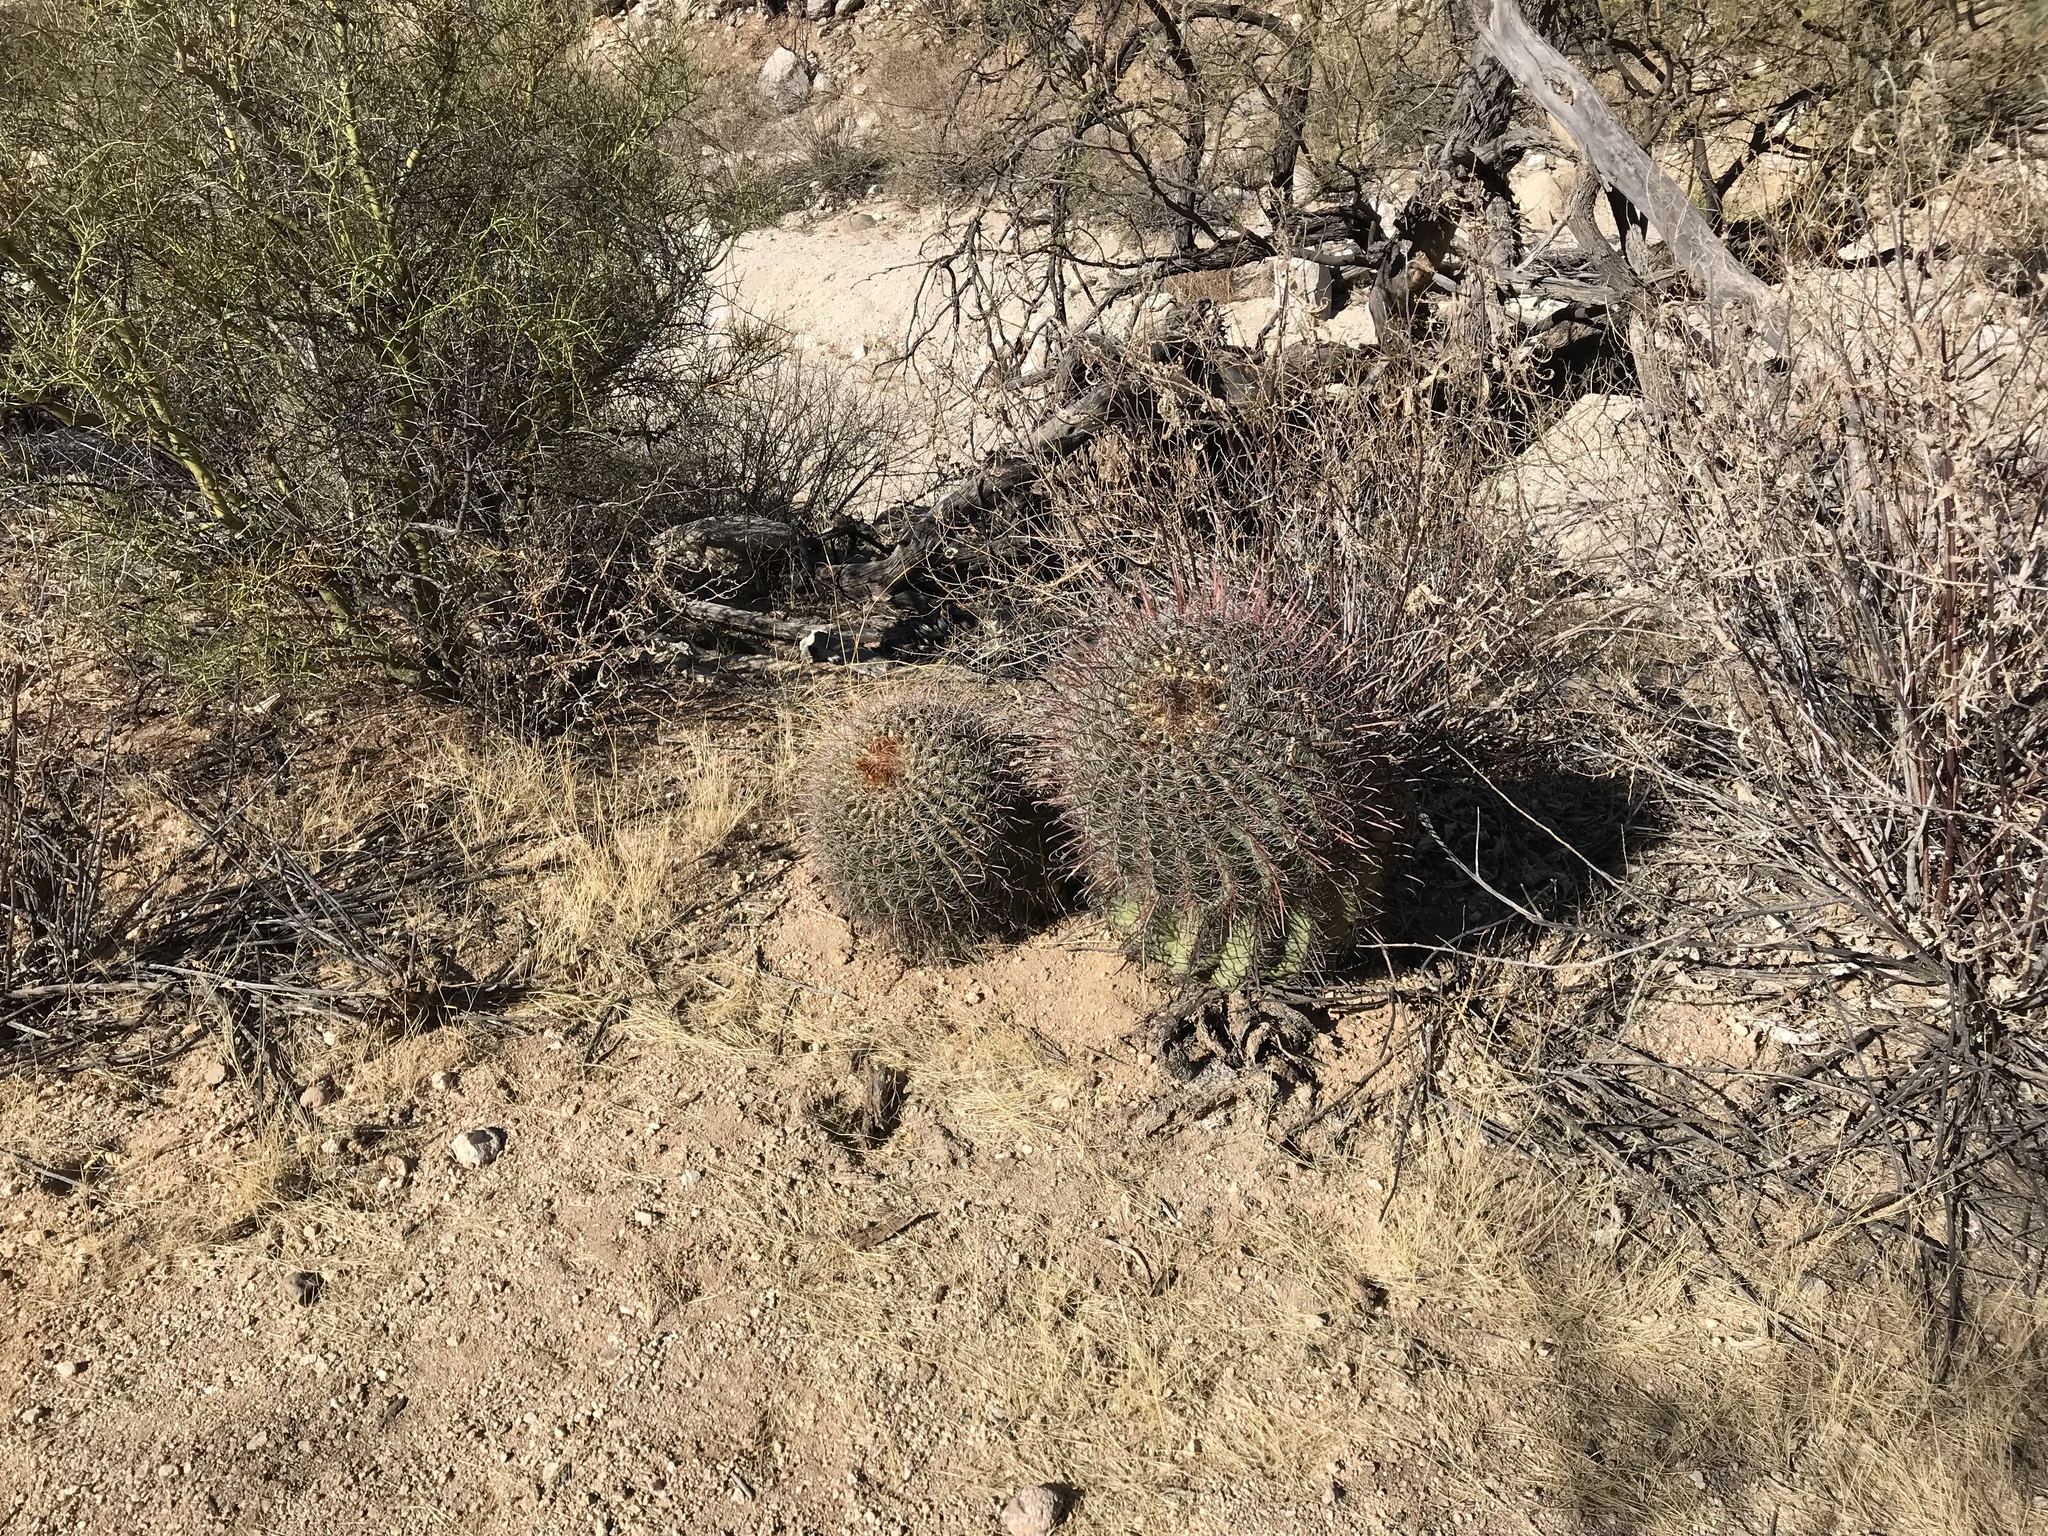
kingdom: Plantae
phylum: Tracheophyta
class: Magnoliopsida
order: Caryophyllales
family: Cactaceae
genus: Ferocactus
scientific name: Ferocactus wislizeni
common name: Candy barrel cactus
